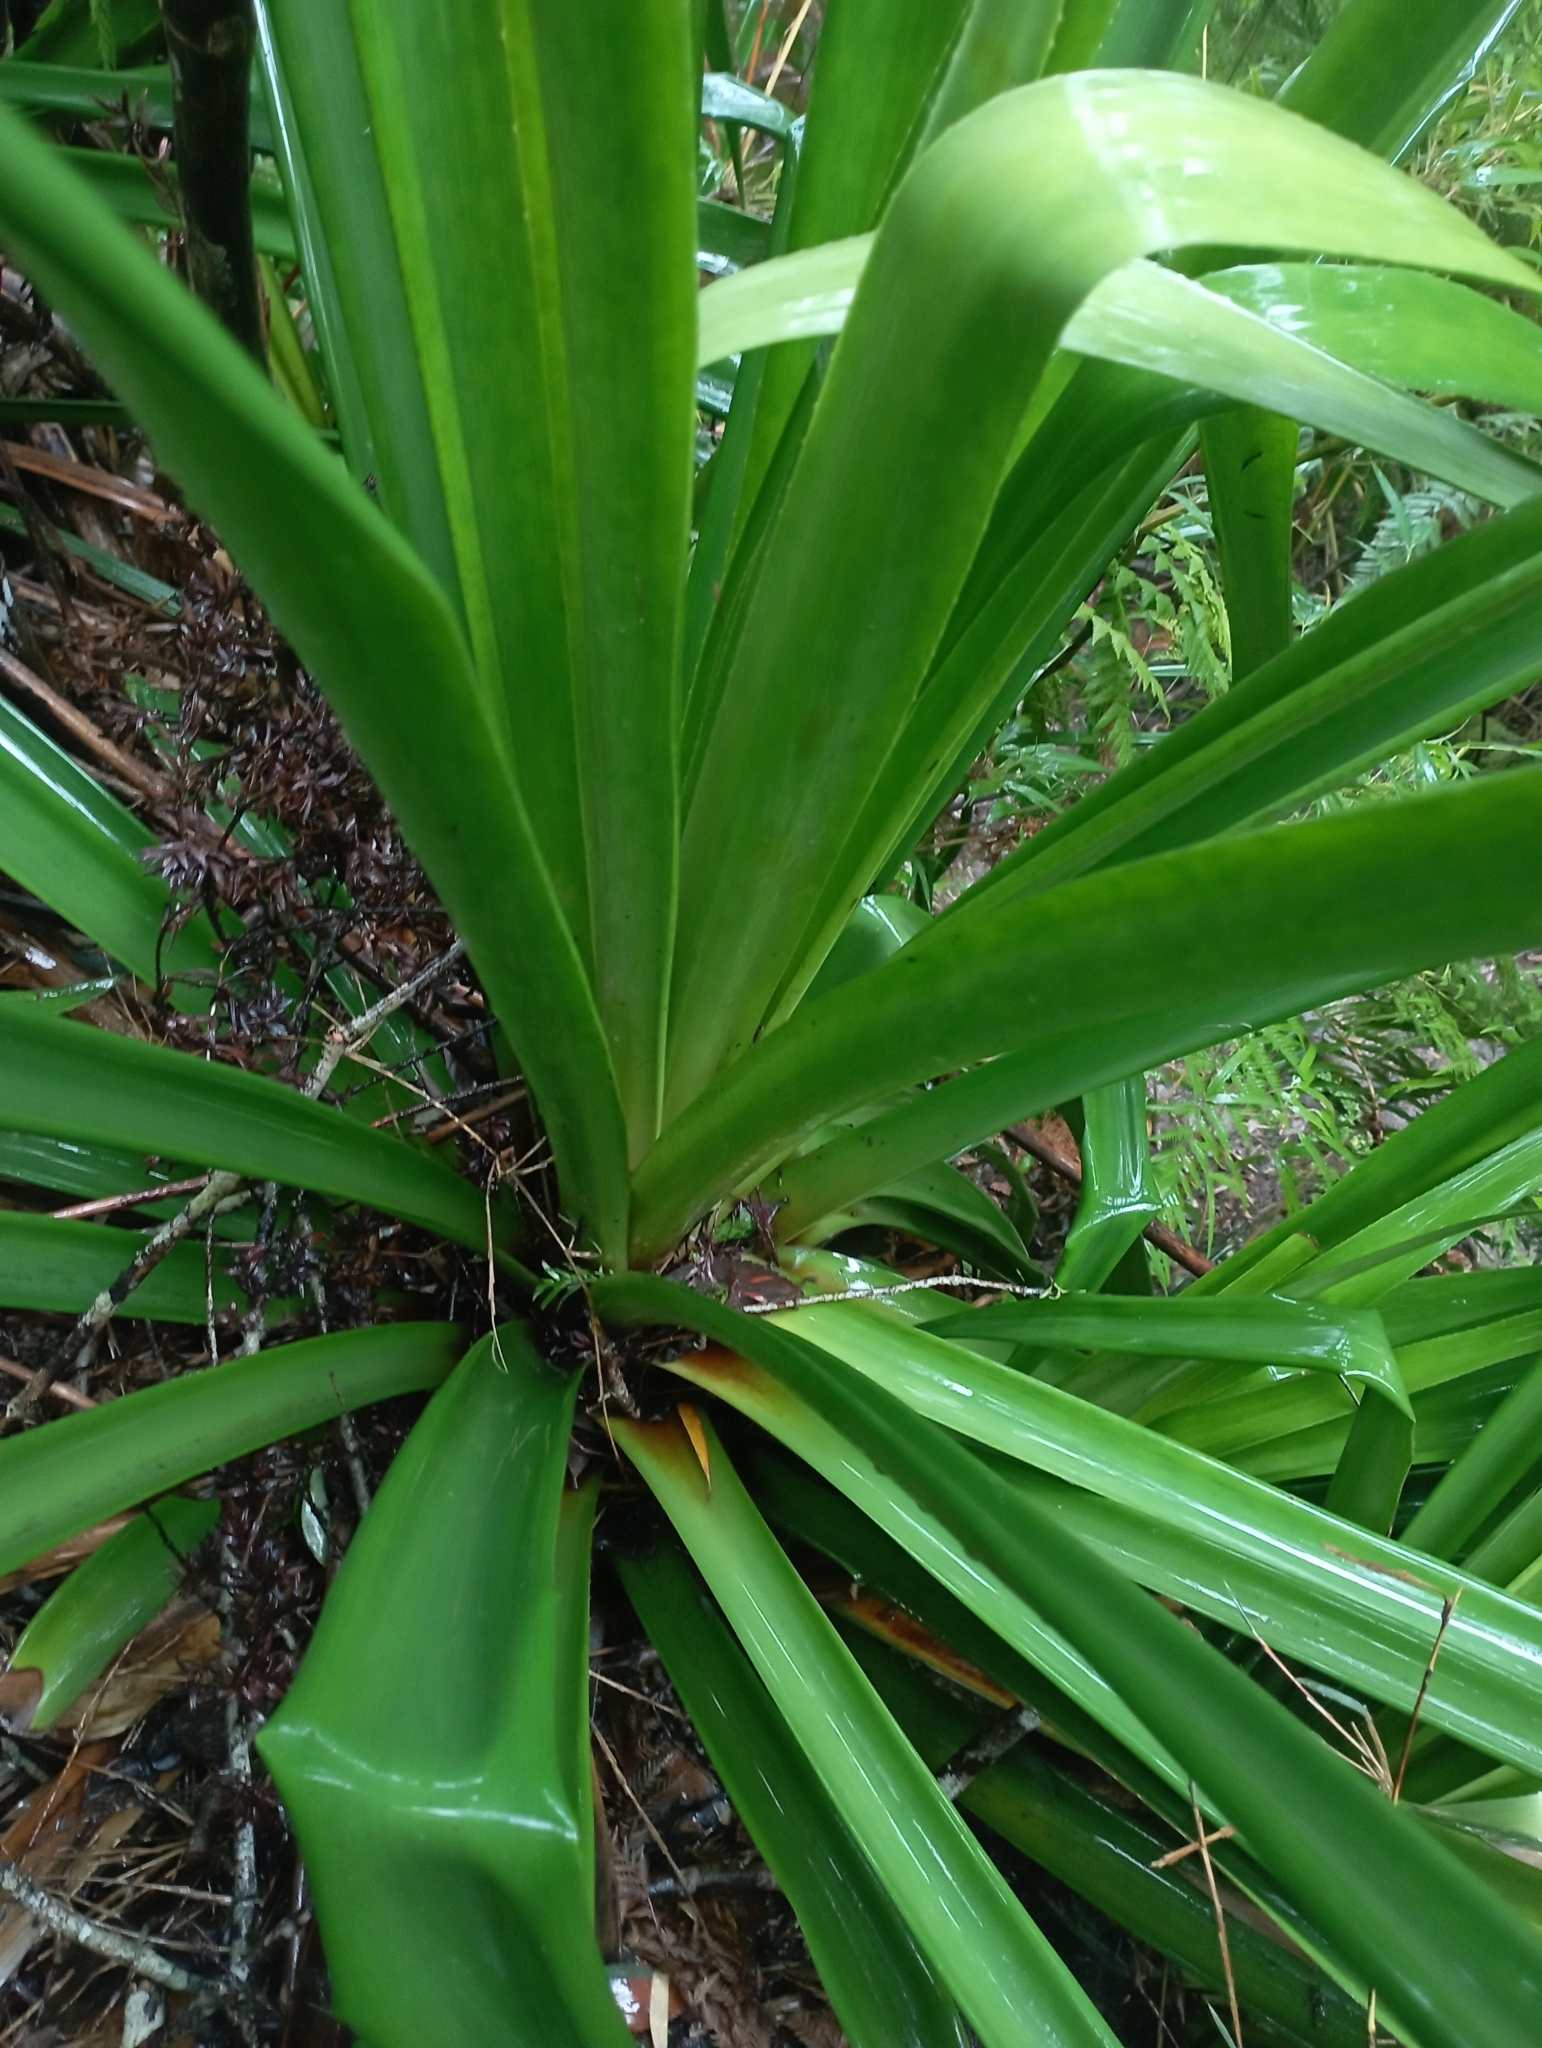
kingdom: Plantae
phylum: Tracheophyta
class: Liliopsida
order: Poales
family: Bromeliaceae
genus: Greigia
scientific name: Greigia landbeckii
